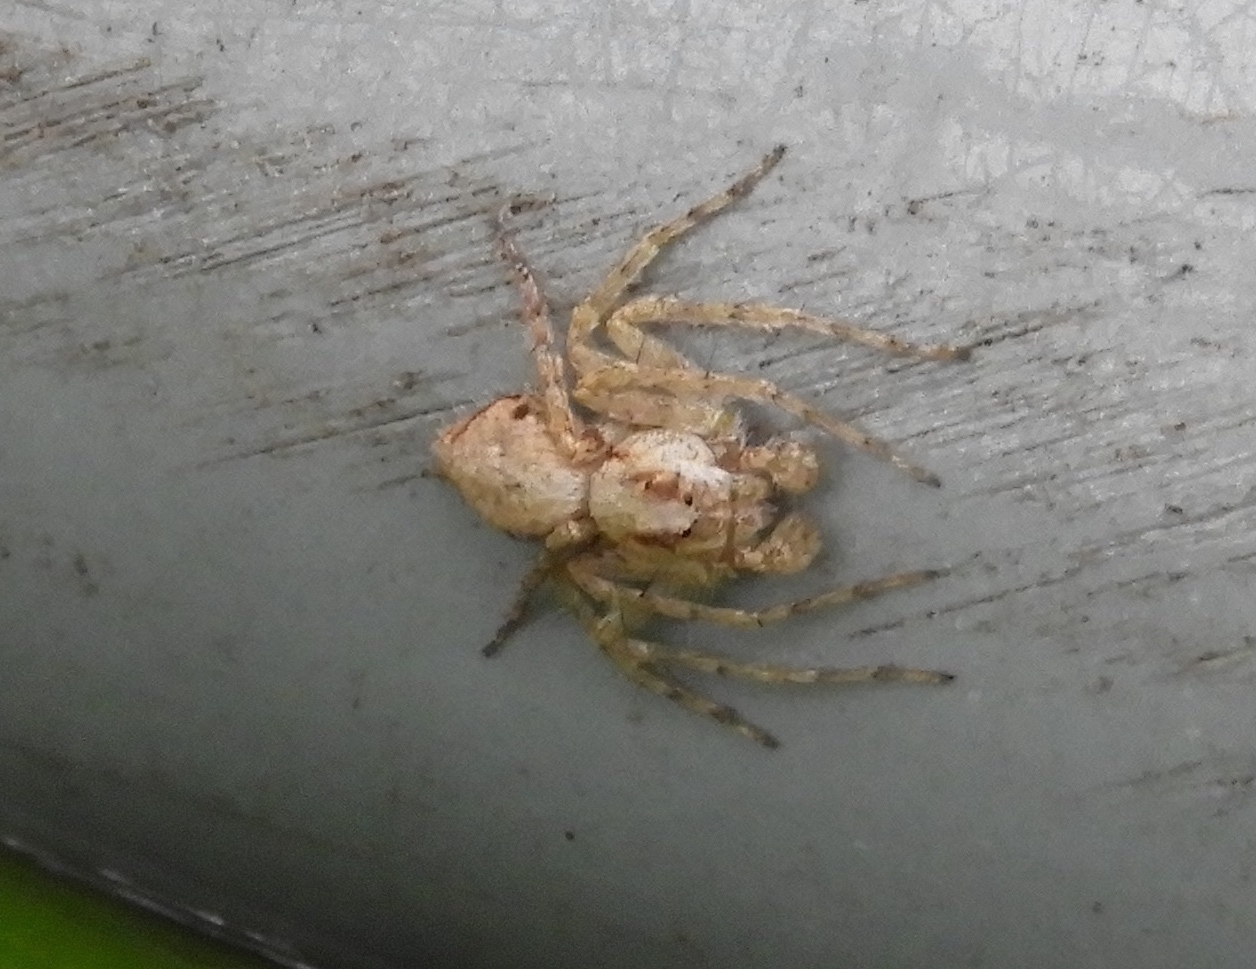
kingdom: Animalia
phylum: Arthropoda
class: Arachnida
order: Araneae
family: Oxyopidae
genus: Hamataliwa
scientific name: Hamataliwa
